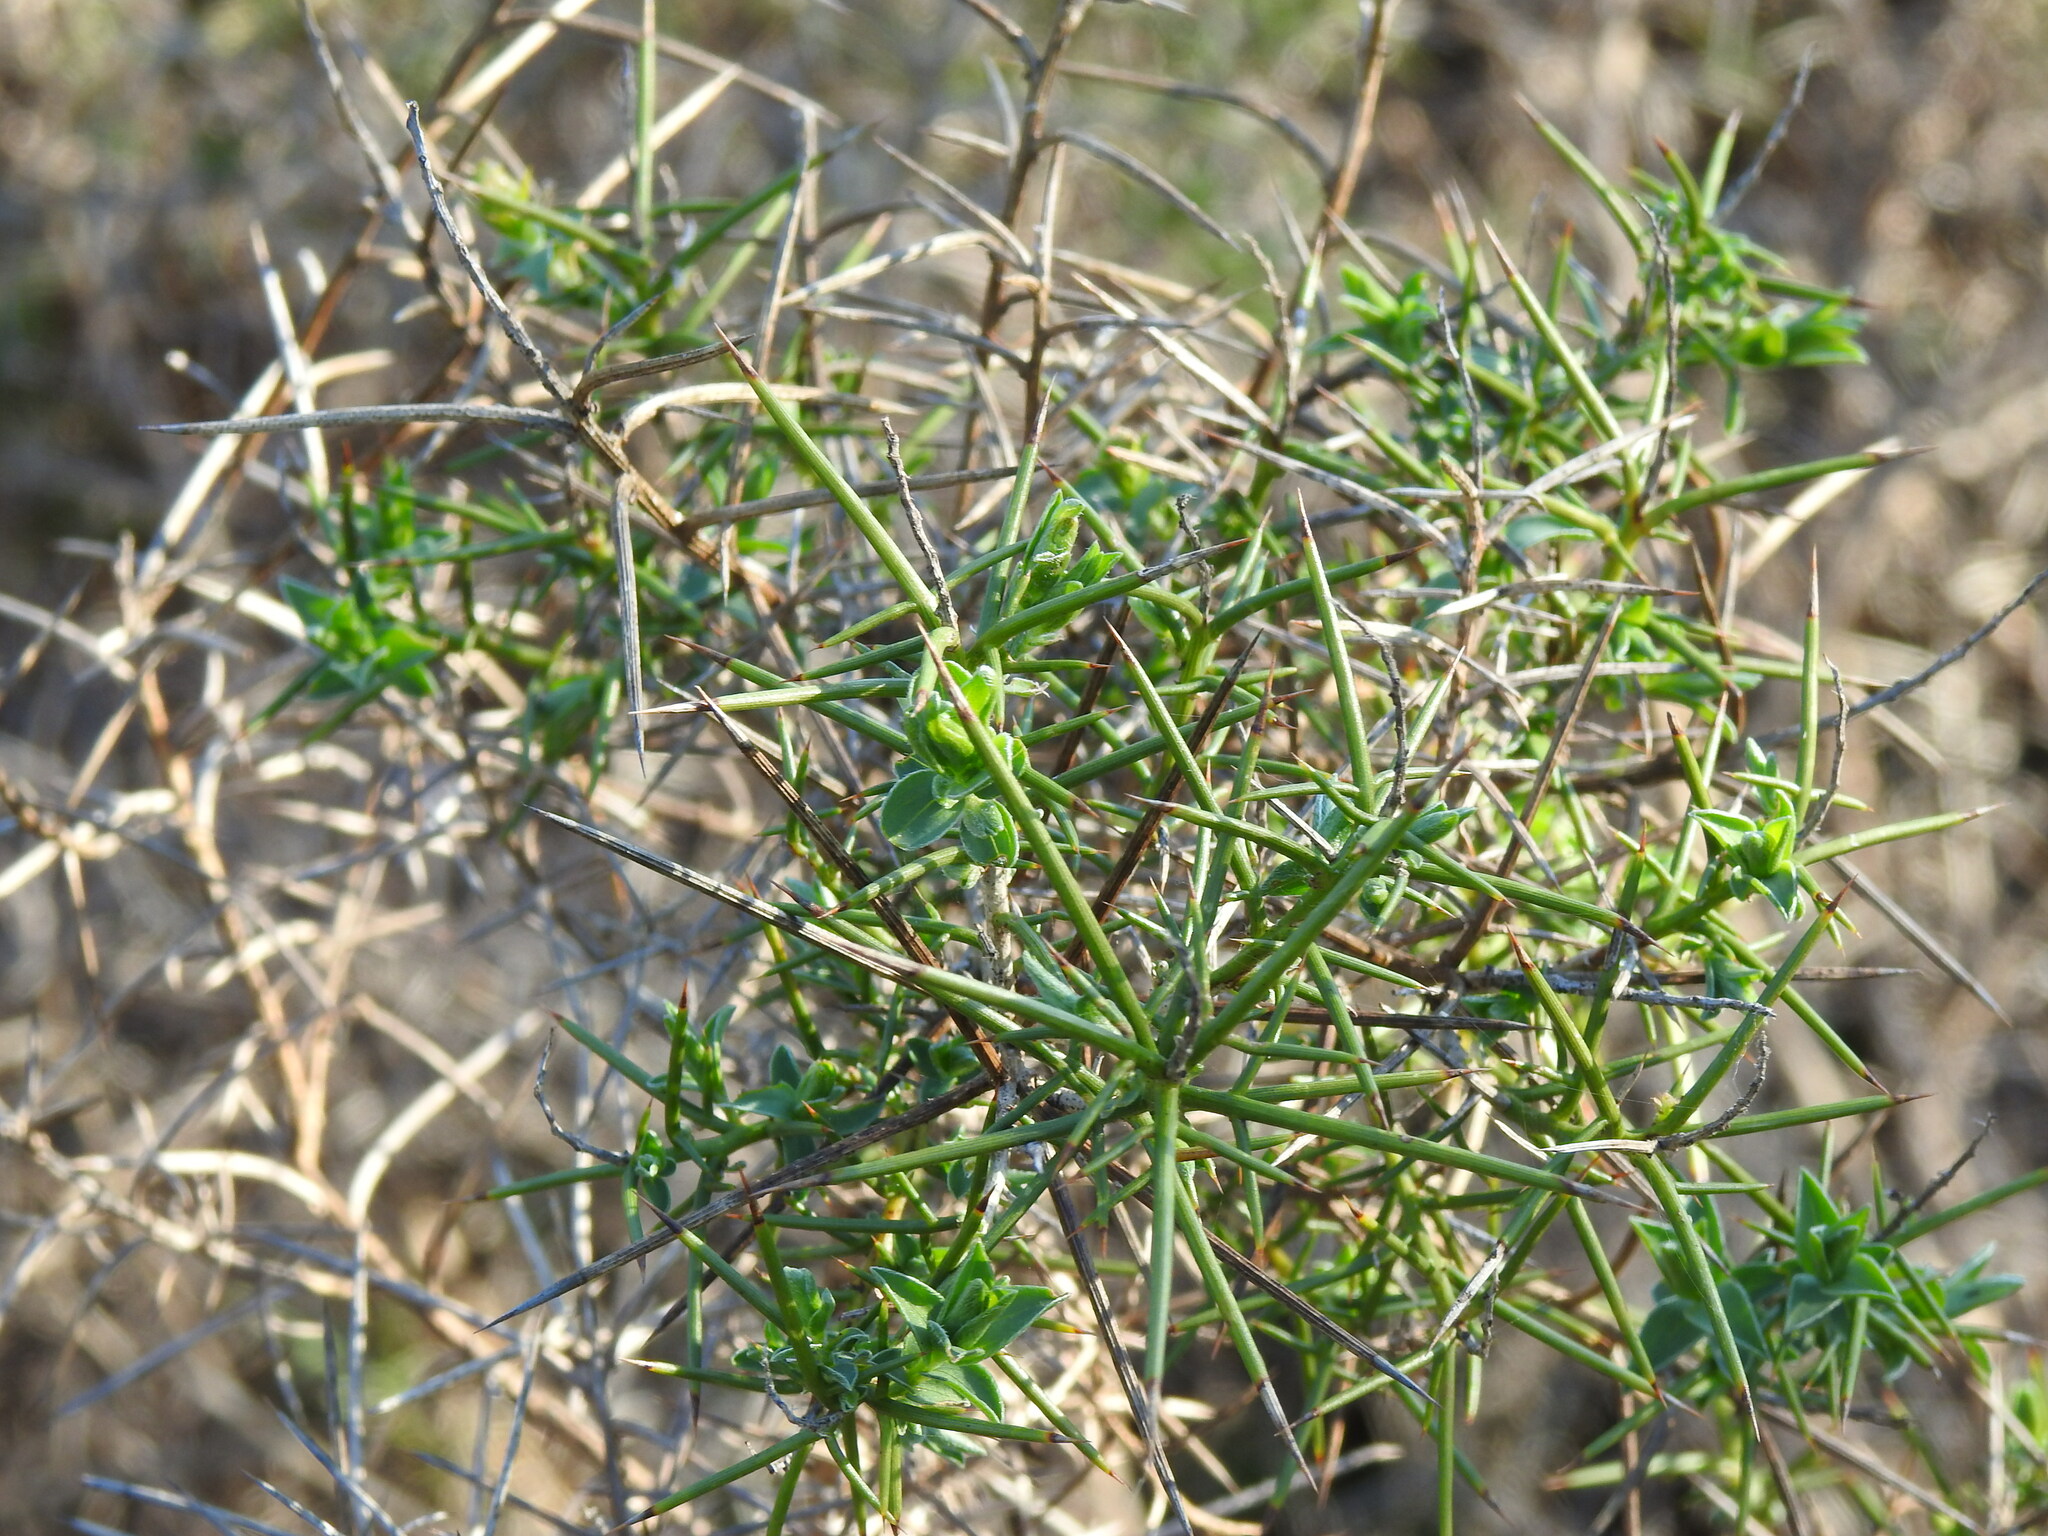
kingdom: Plantae
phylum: Tracheophyta
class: Magnoliopsida
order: Fabales
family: Fabaceae
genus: Genista
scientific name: Genista hirsuta
